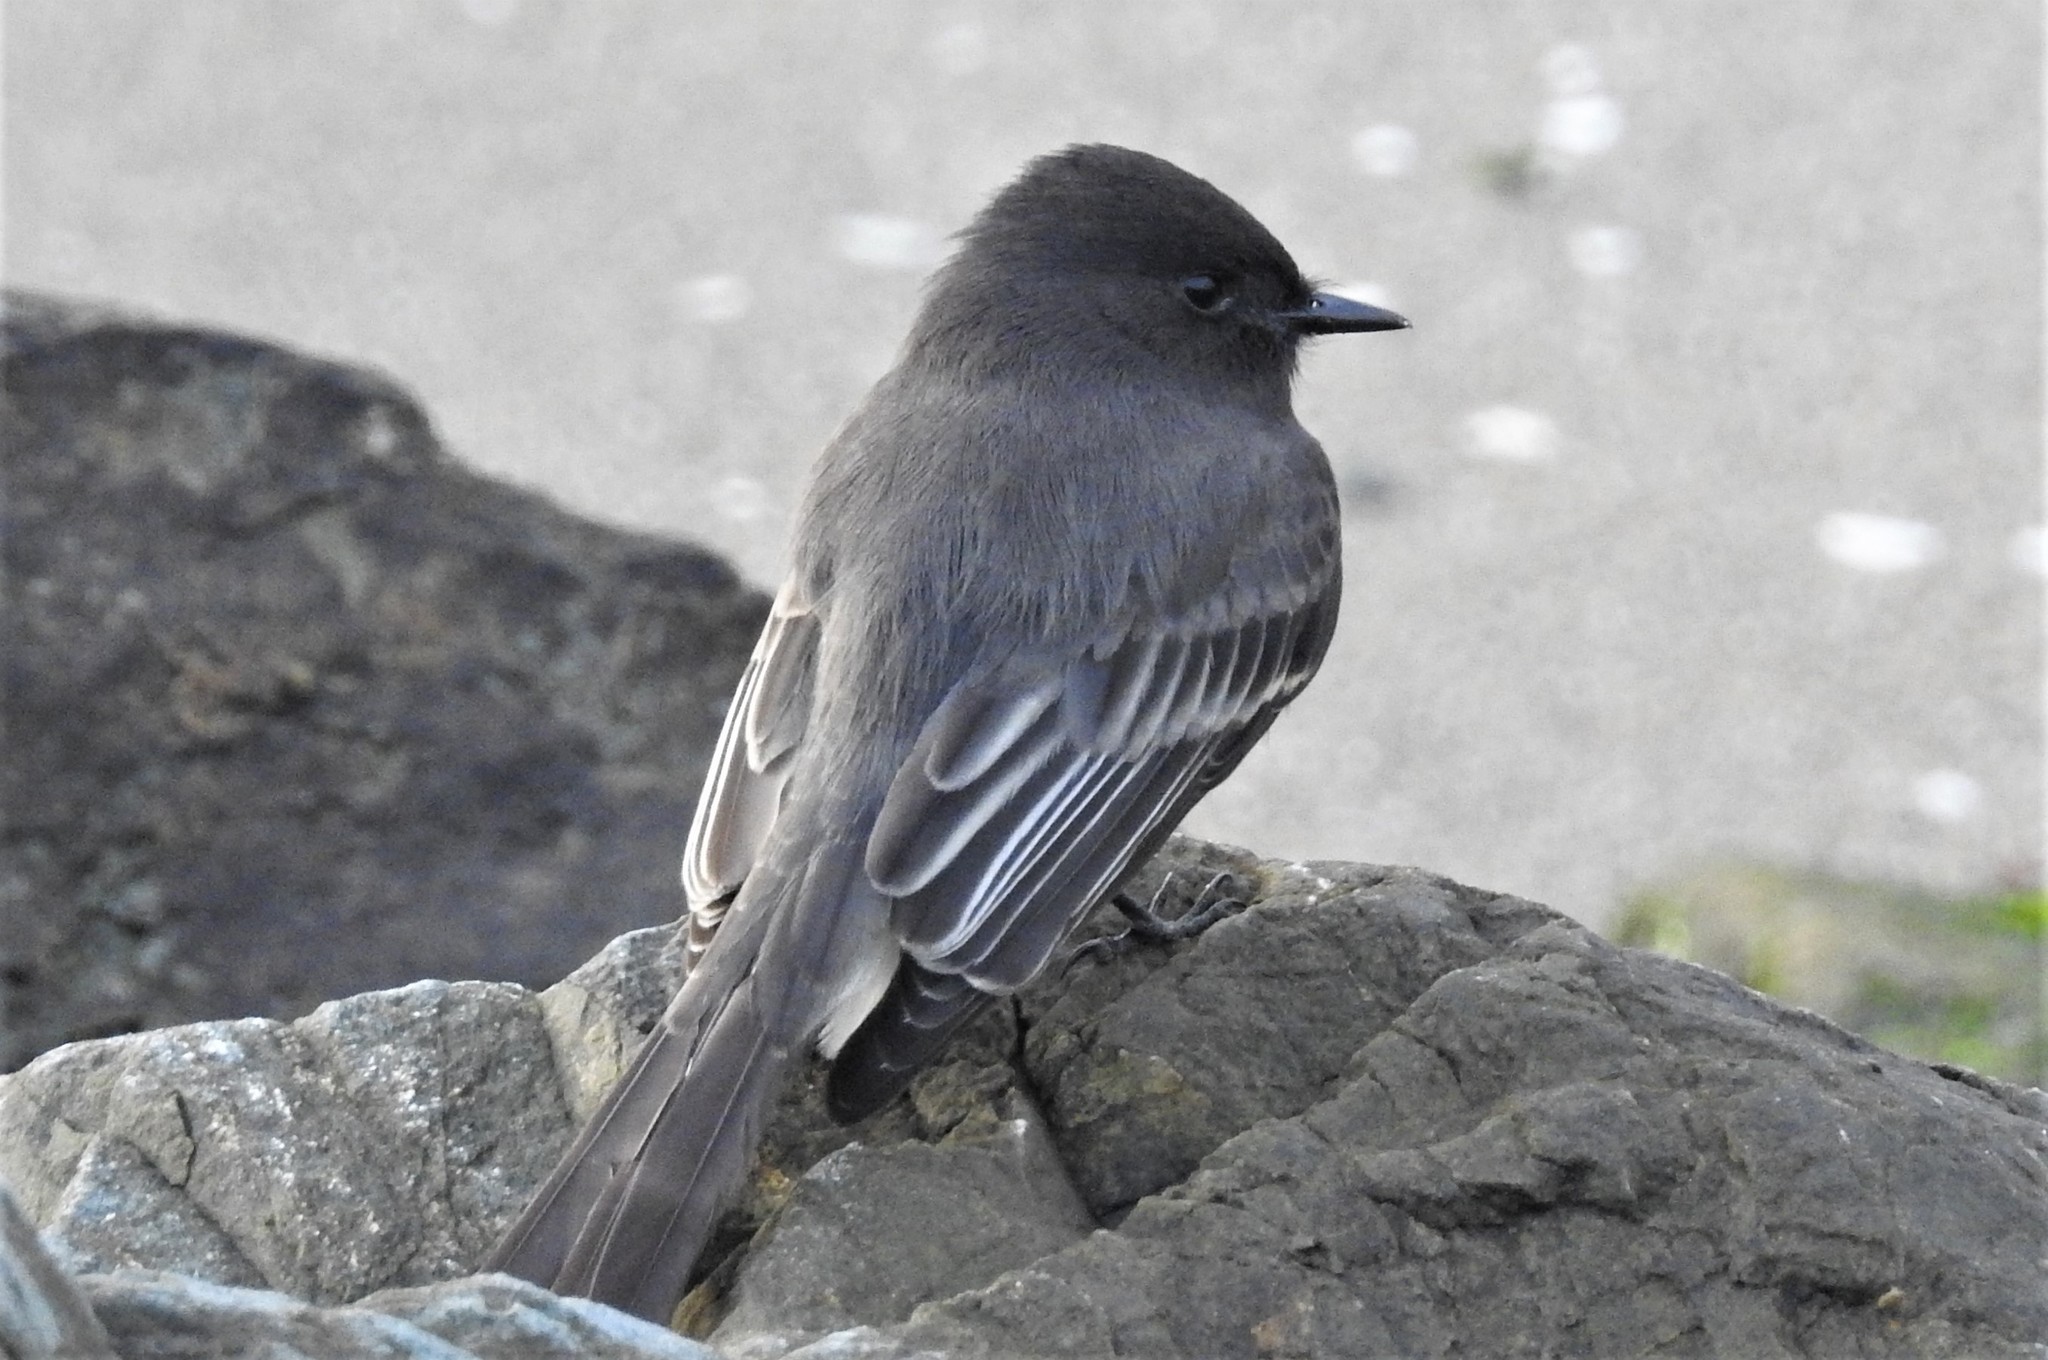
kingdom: Animalia
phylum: Chordata
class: Aves
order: Passeriformes
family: Tyrannidae
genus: Sayornis
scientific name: Sayornis nigricans
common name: Black phoebe
